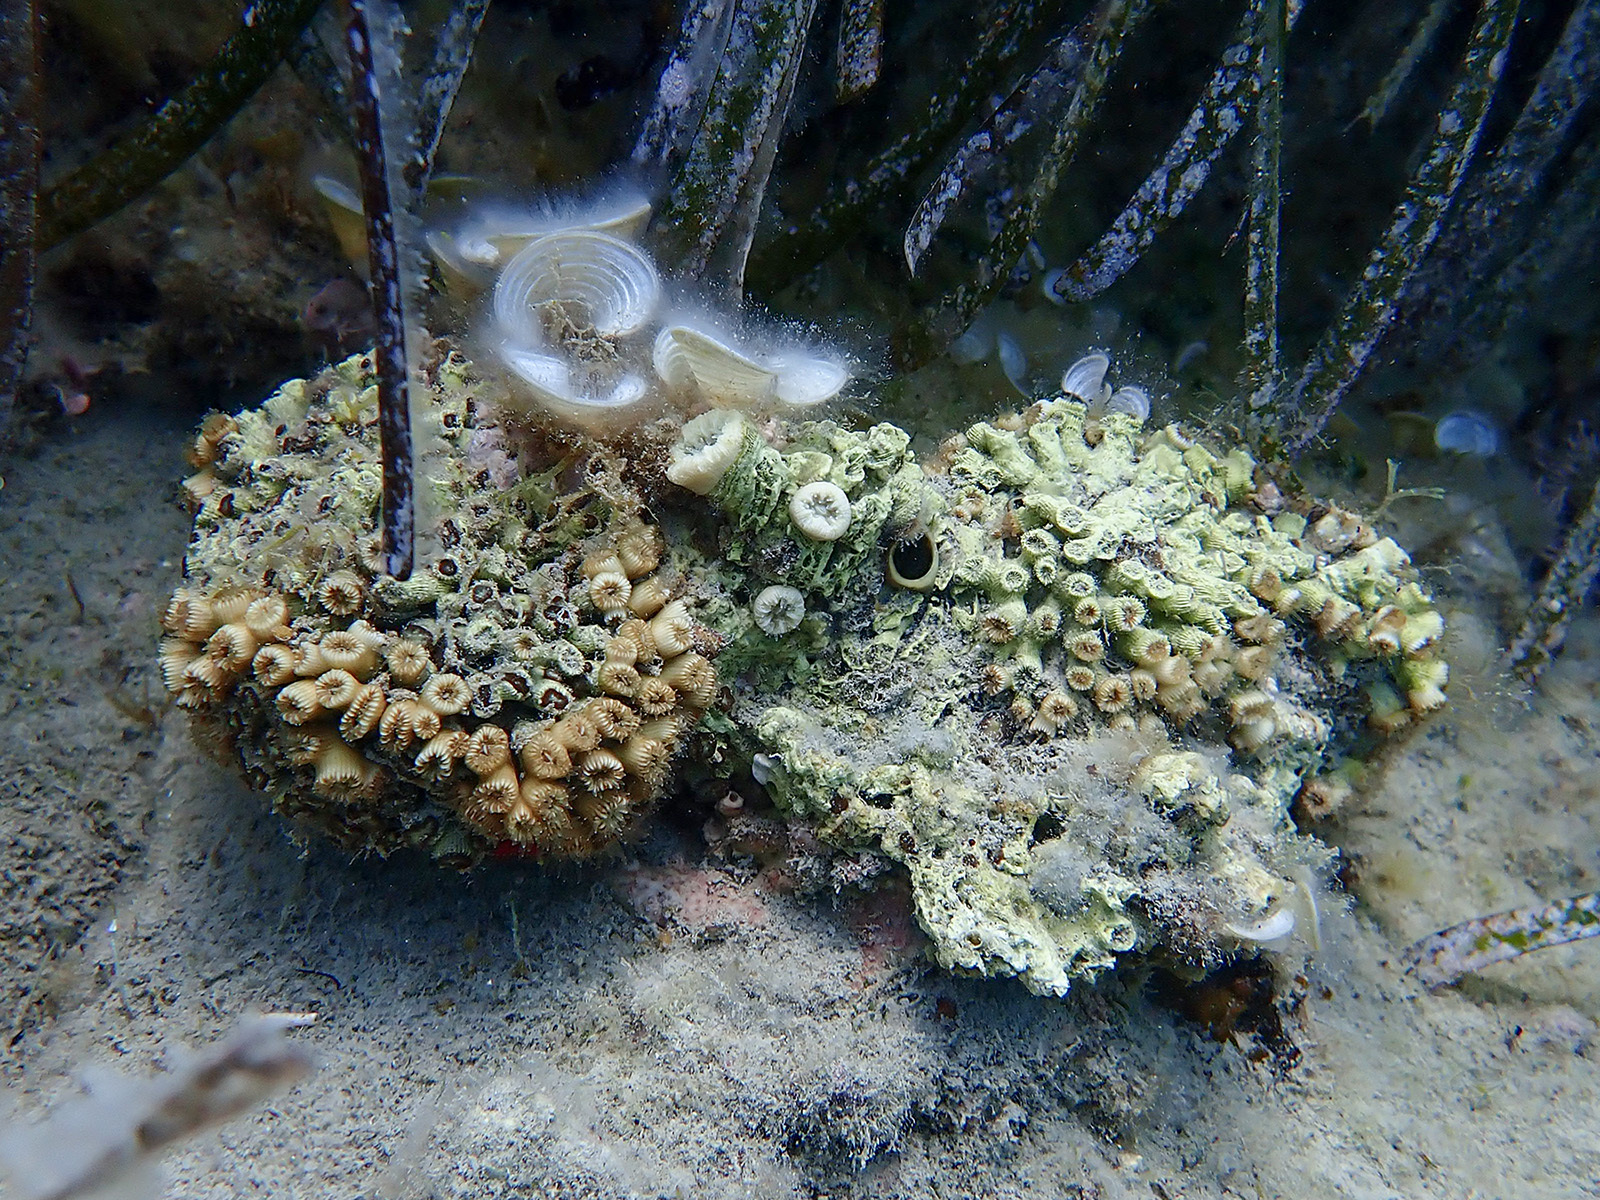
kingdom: Animalia
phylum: Cnidaria
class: Anthozoa
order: Scleractinia
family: Cladocoridae
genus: Cladocora
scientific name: Cladocora caespitosa
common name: Cladocora
